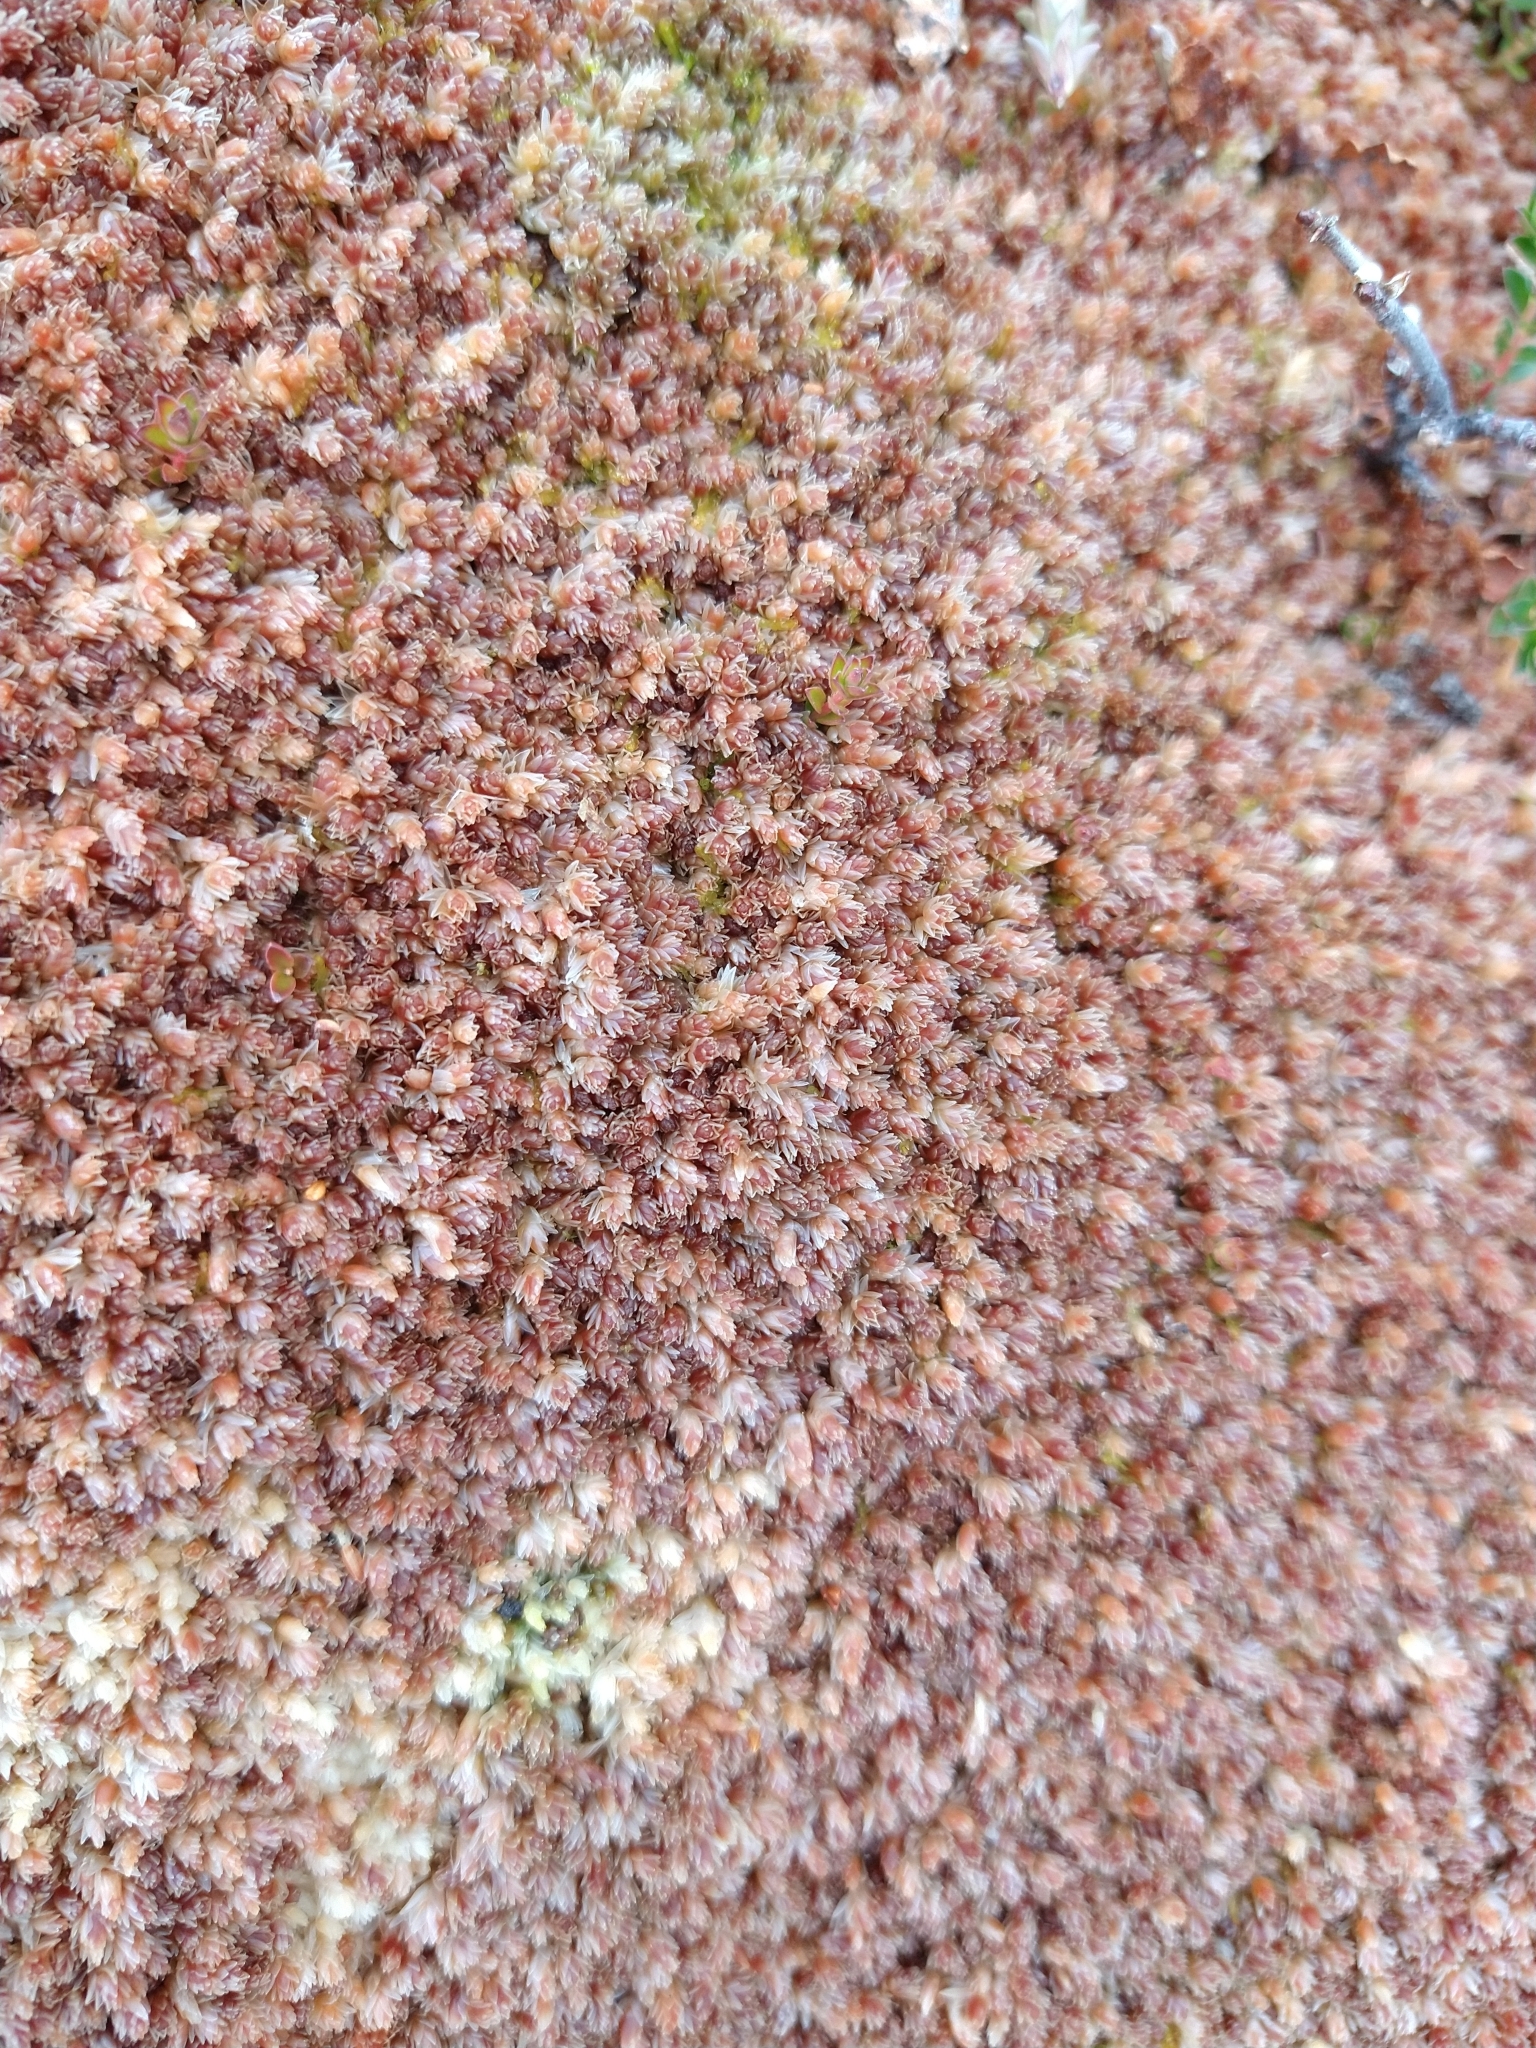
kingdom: Plantae
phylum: Bryophyta
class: Sphagnopsida
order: Sphagnales
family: Sphagnaceae
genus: Sphagnum
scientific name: Sphagnum magellanicum
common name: Magellan's peat moss
